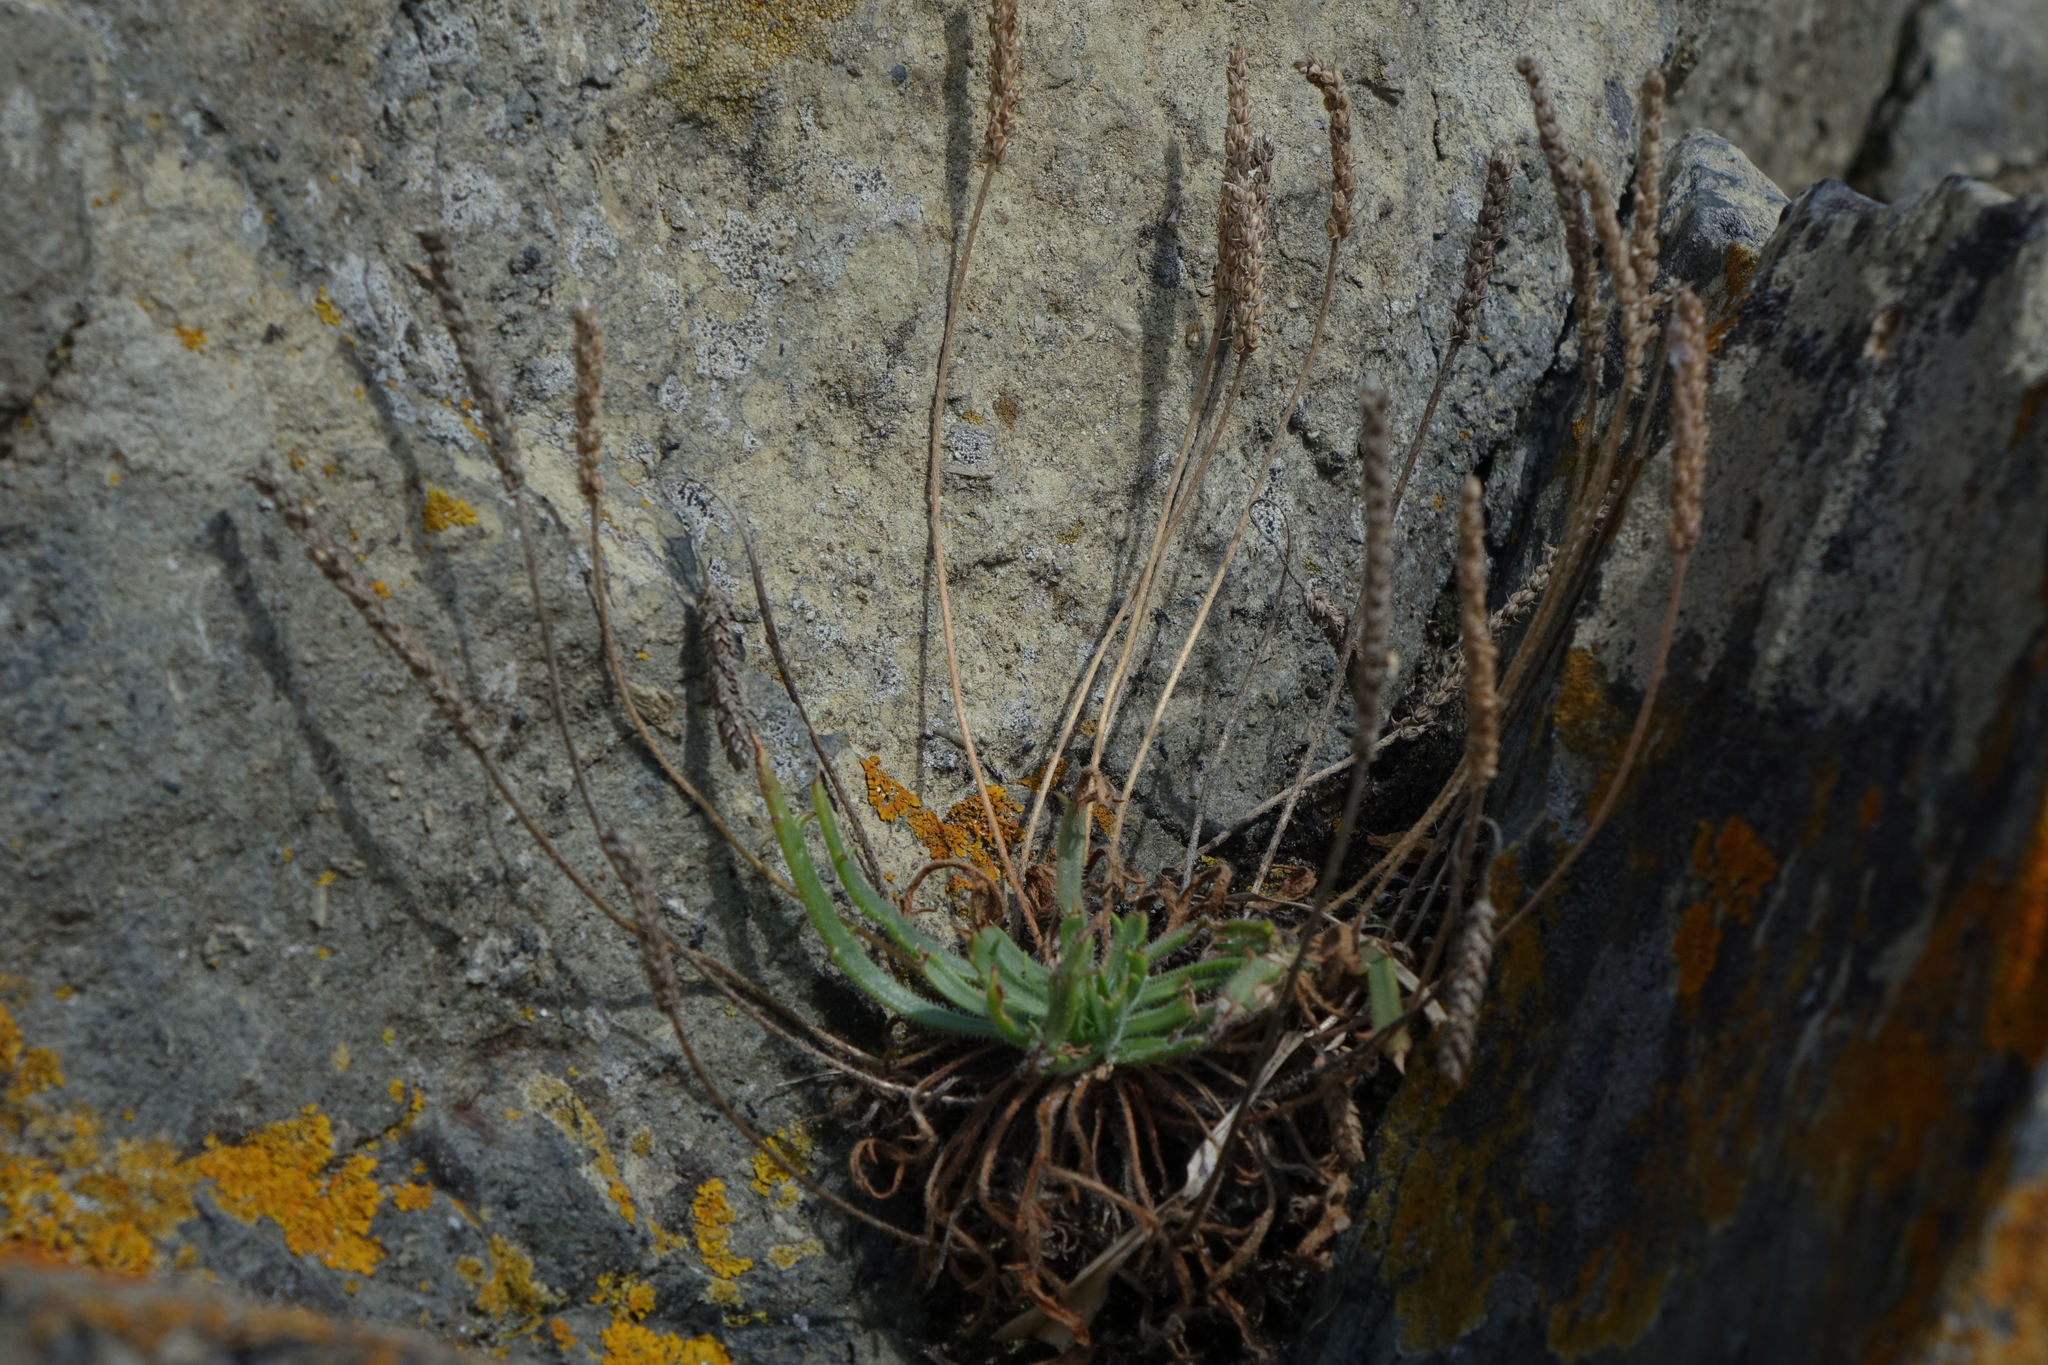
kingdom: Plantae
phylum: Tracheophyta
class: Magnoliopsida
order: Lamiales
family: Plantaginaceae
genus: Plantago
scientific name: Plantago coronopus
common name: Buck's-horn plantain
